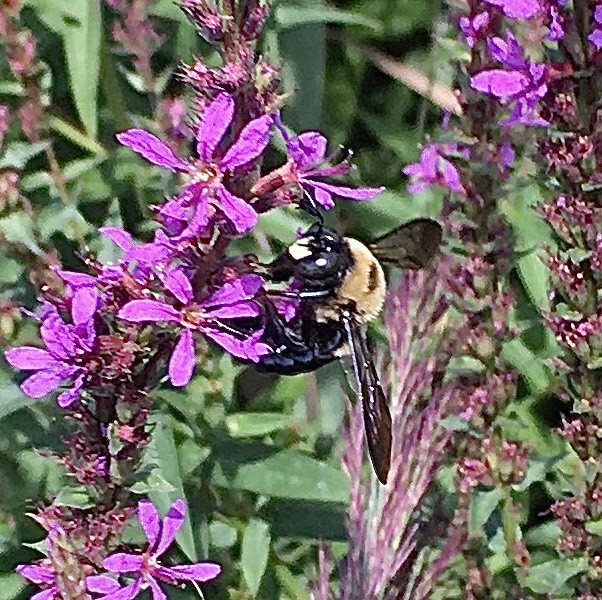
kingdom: Animalia
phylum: Arthropoda
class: Insecta
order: Hymenoptera
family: Apidae
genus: Xylocopa
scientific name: Xylocopa virginica
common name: Carpenter bee
